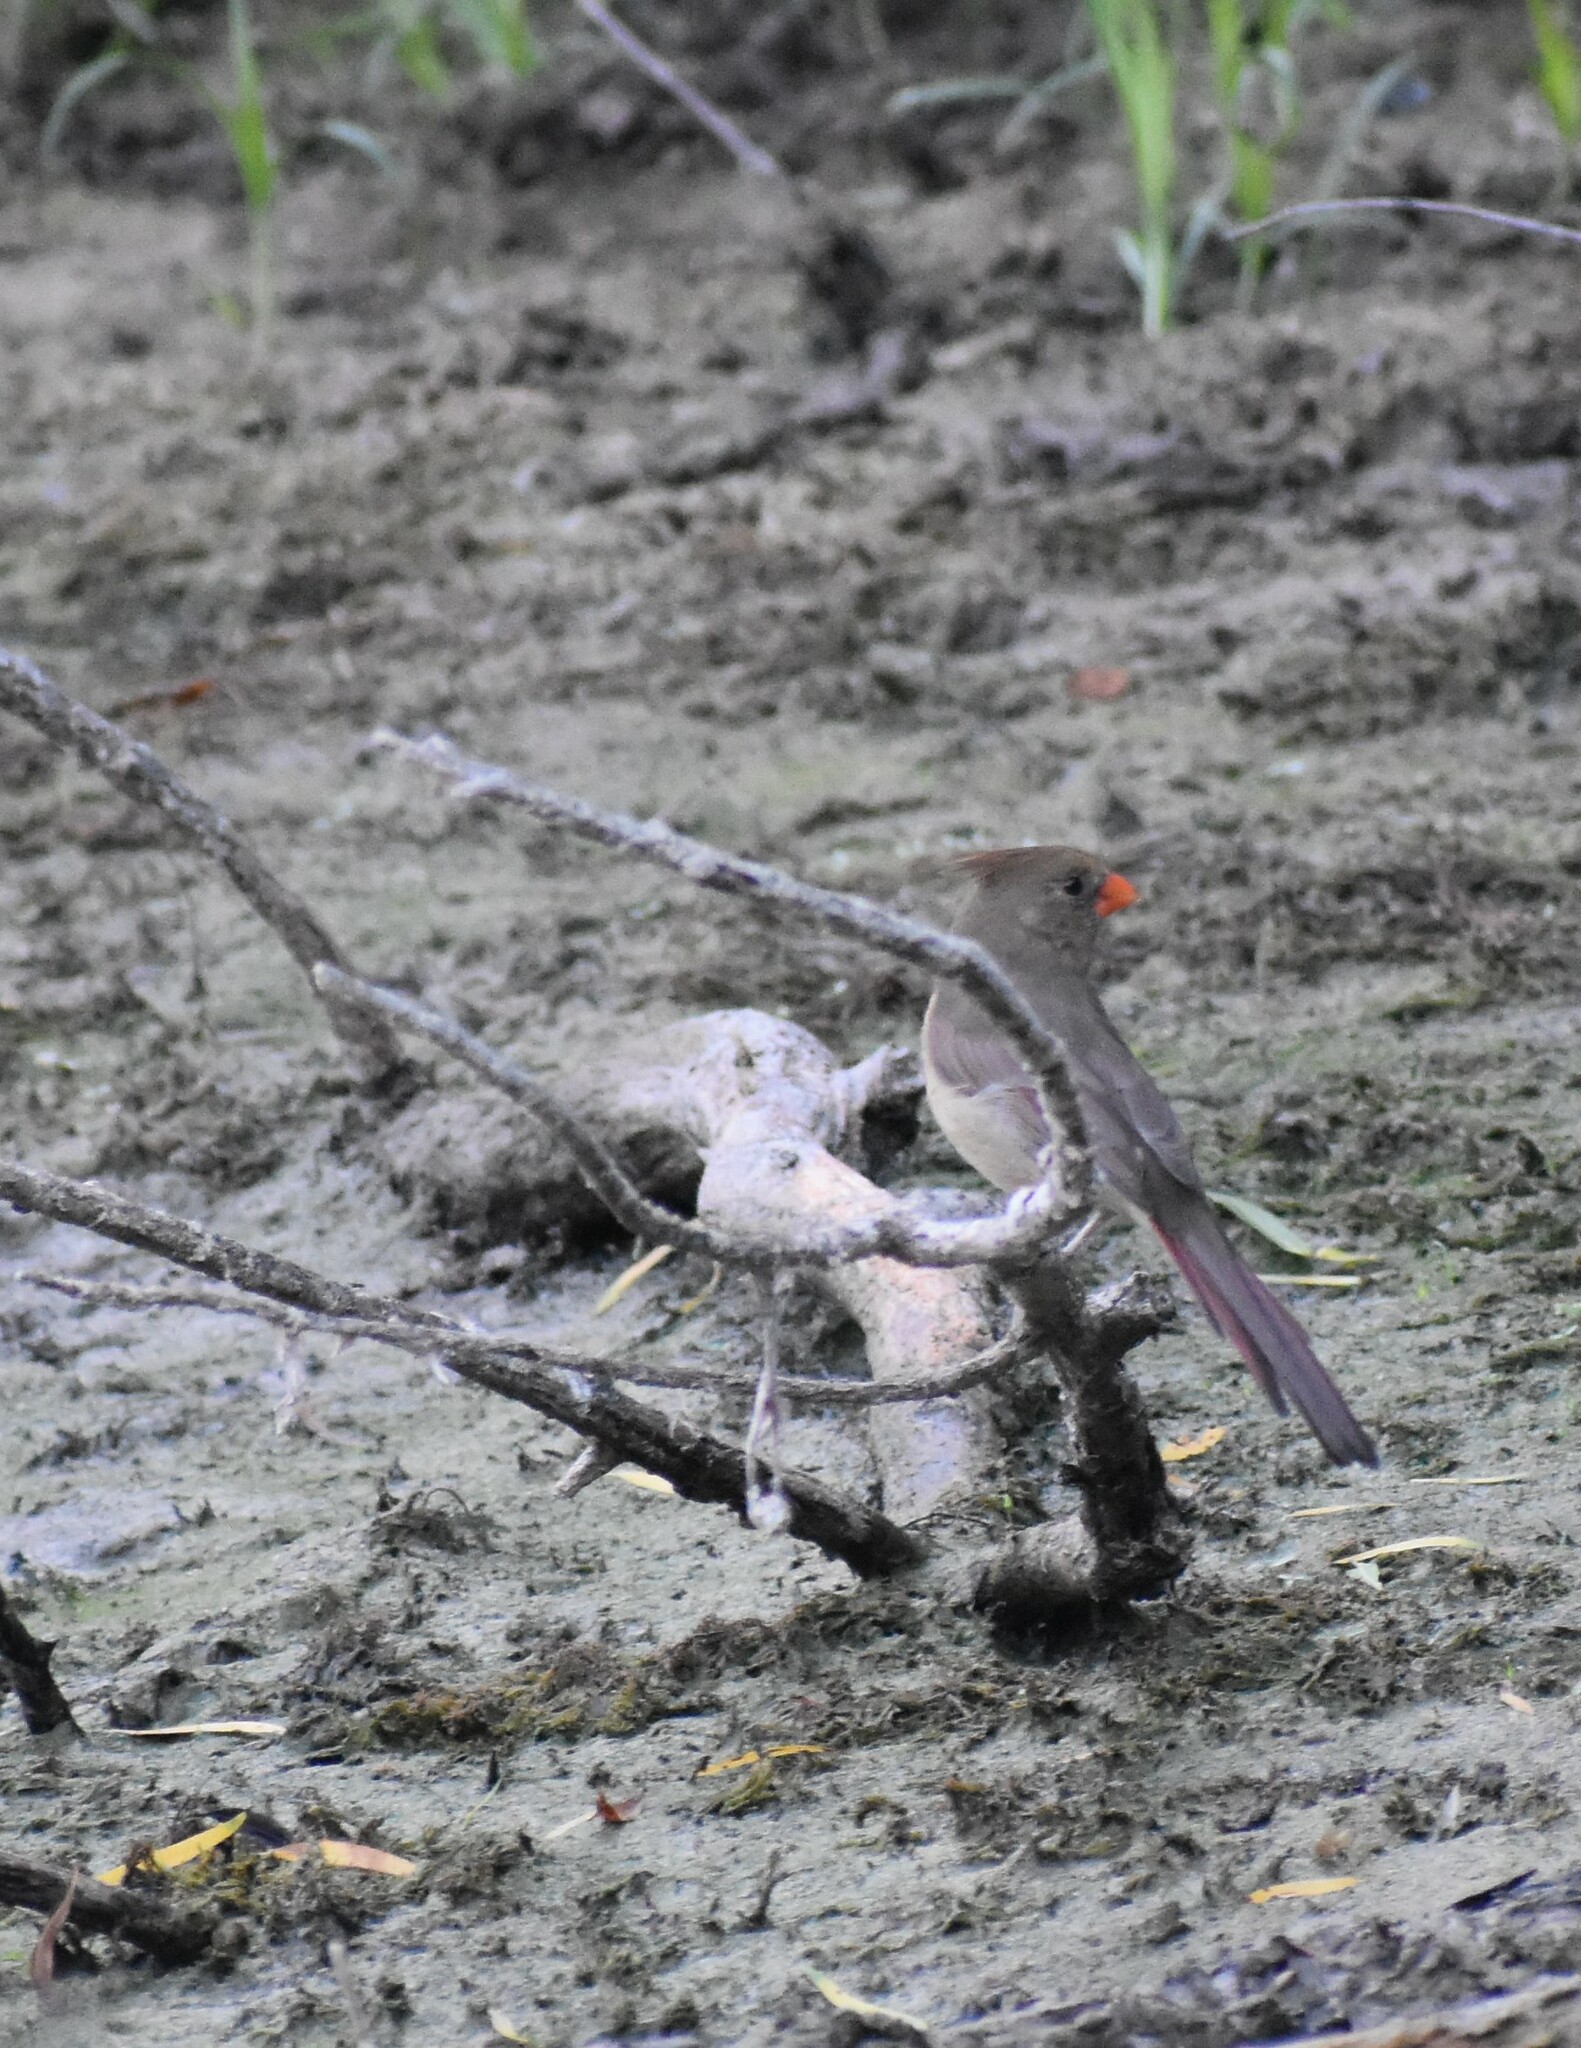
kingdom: Animalia
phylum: Chordata
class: Aves
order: Passeriformes
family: Cardinalidae
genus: Cardinalis
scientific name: Cardinalis cardinalis
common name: Northern cardinal
